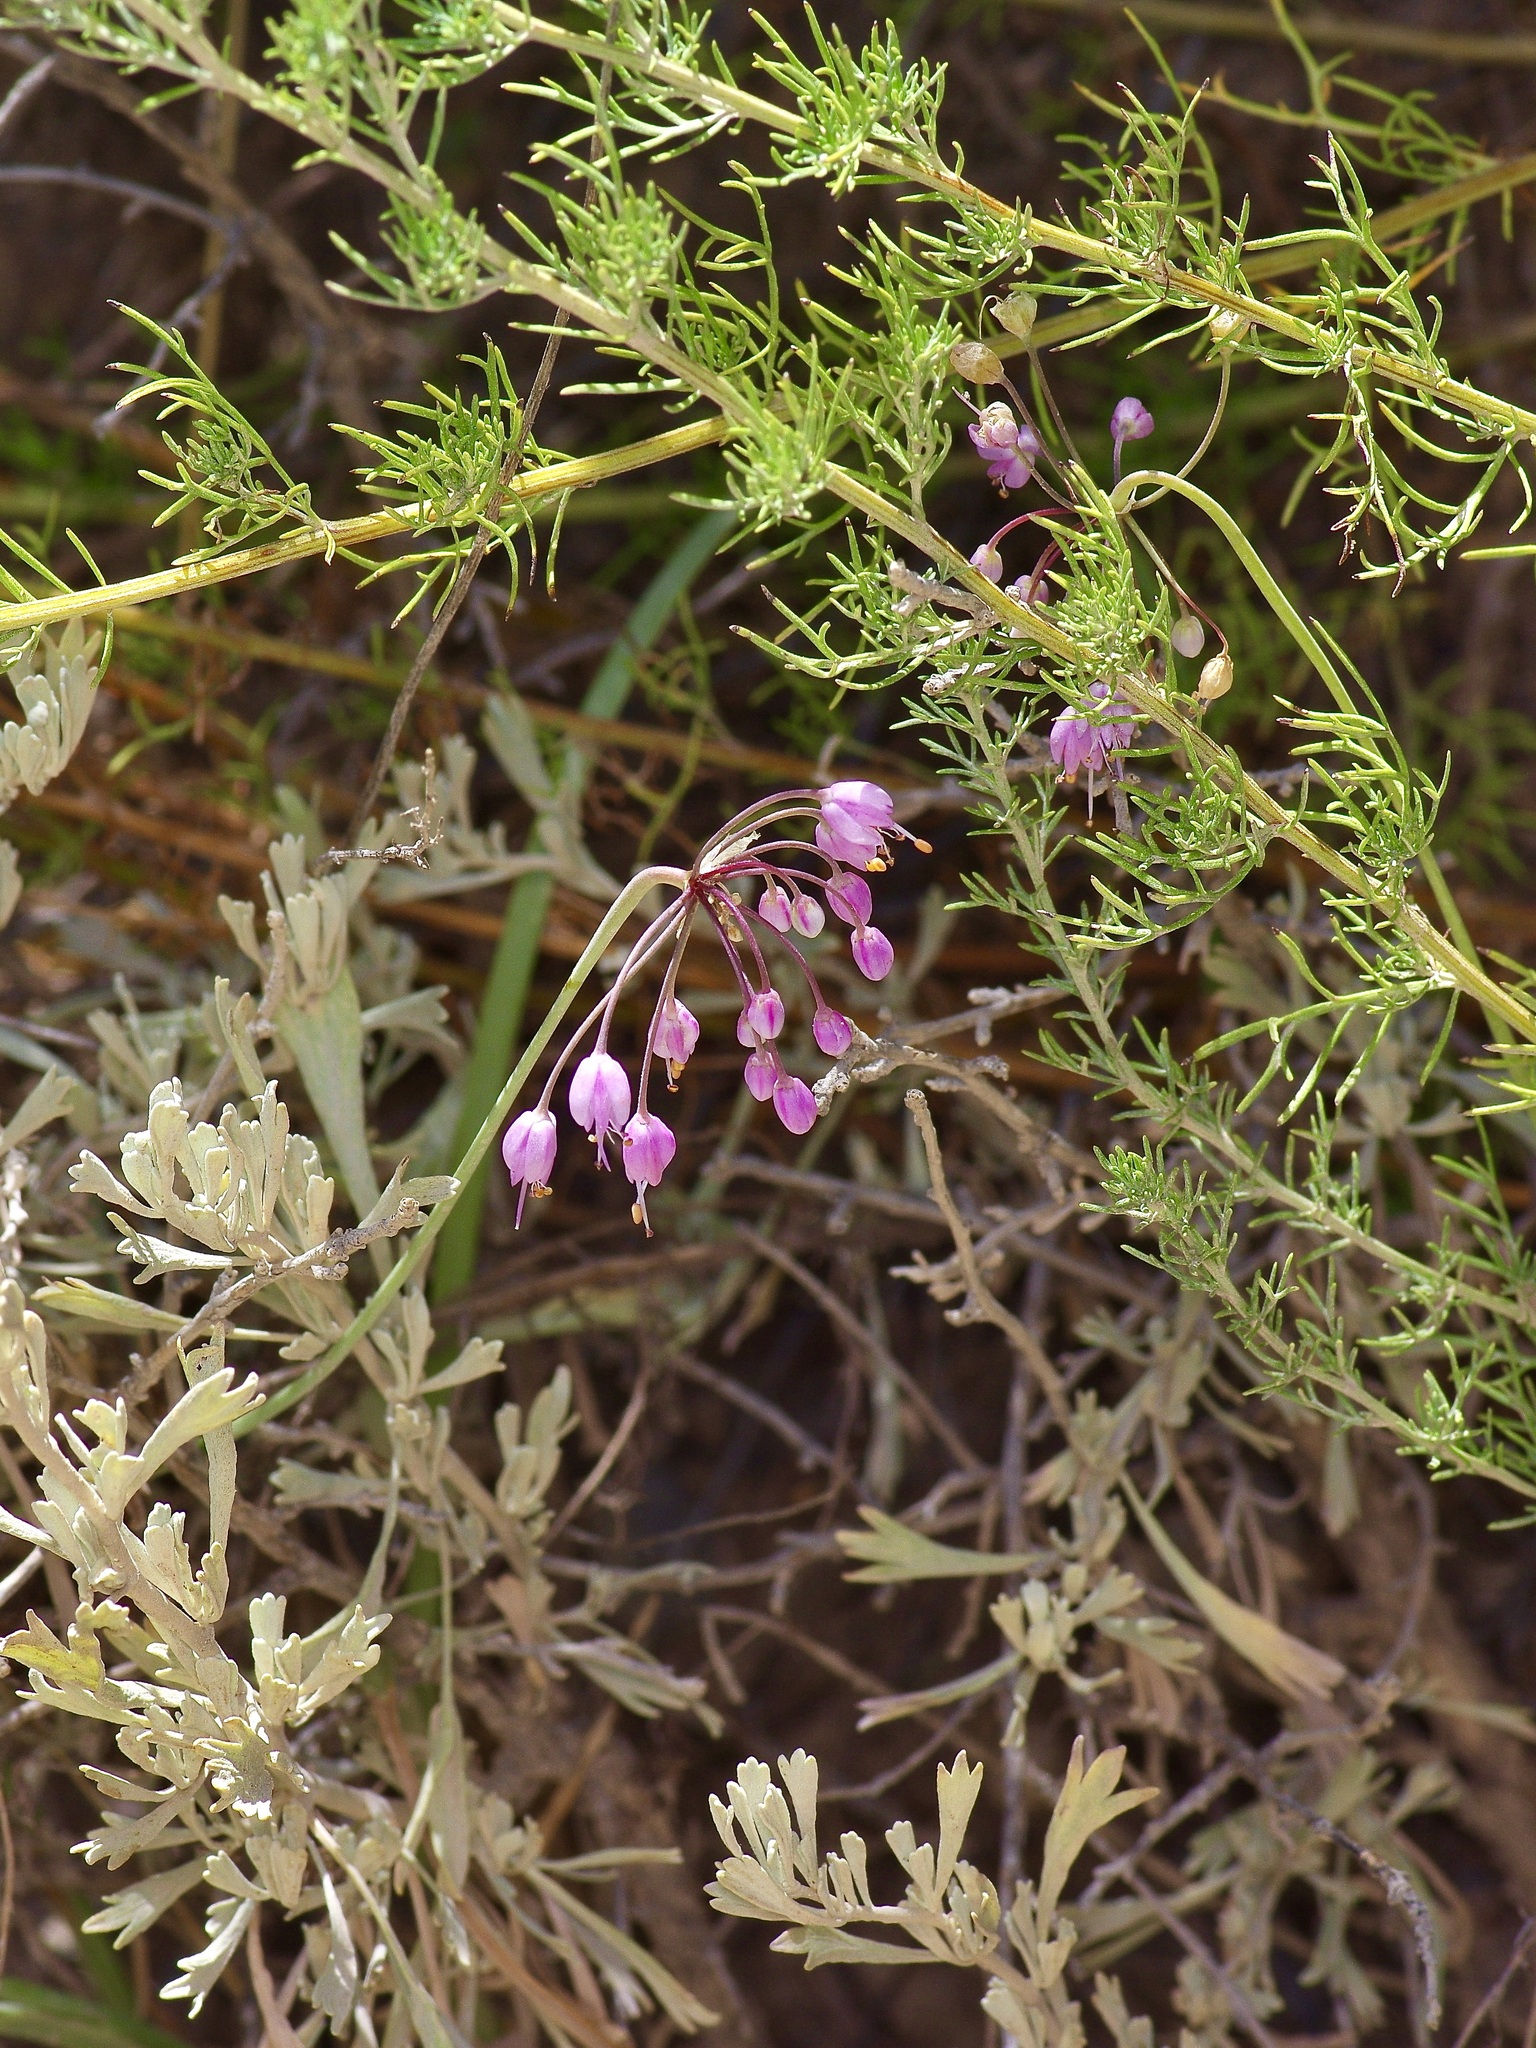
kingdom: Plantae
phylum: Tracheophyta
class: Liliopsida
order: Asparagales
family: Amaryllidaceae
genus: Allium
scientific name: Allium cernuum
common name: Nodding onion
